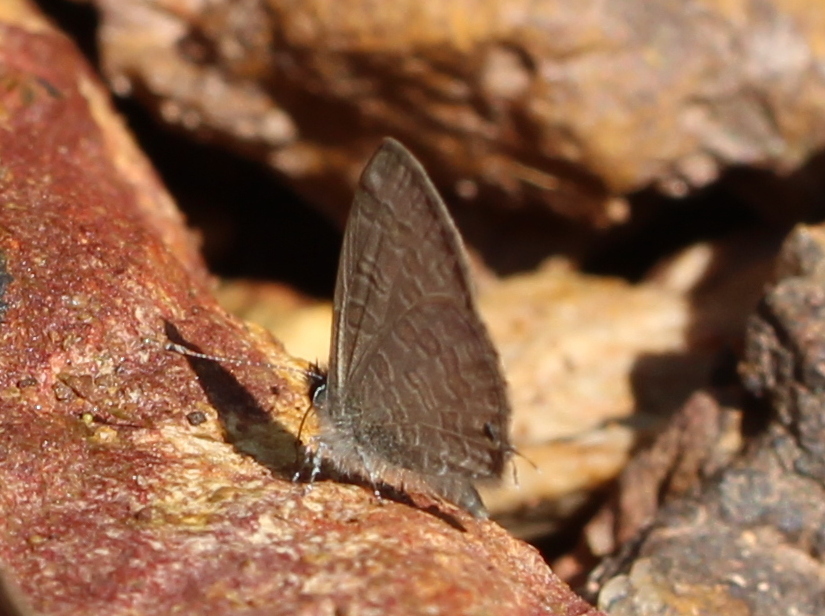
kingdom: Animalia
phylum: Arthropoda
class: Insecta
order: Lepidoptera
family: Lycaenidae
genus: Prosotas
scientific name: Prosotas nora
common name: Common line blue
